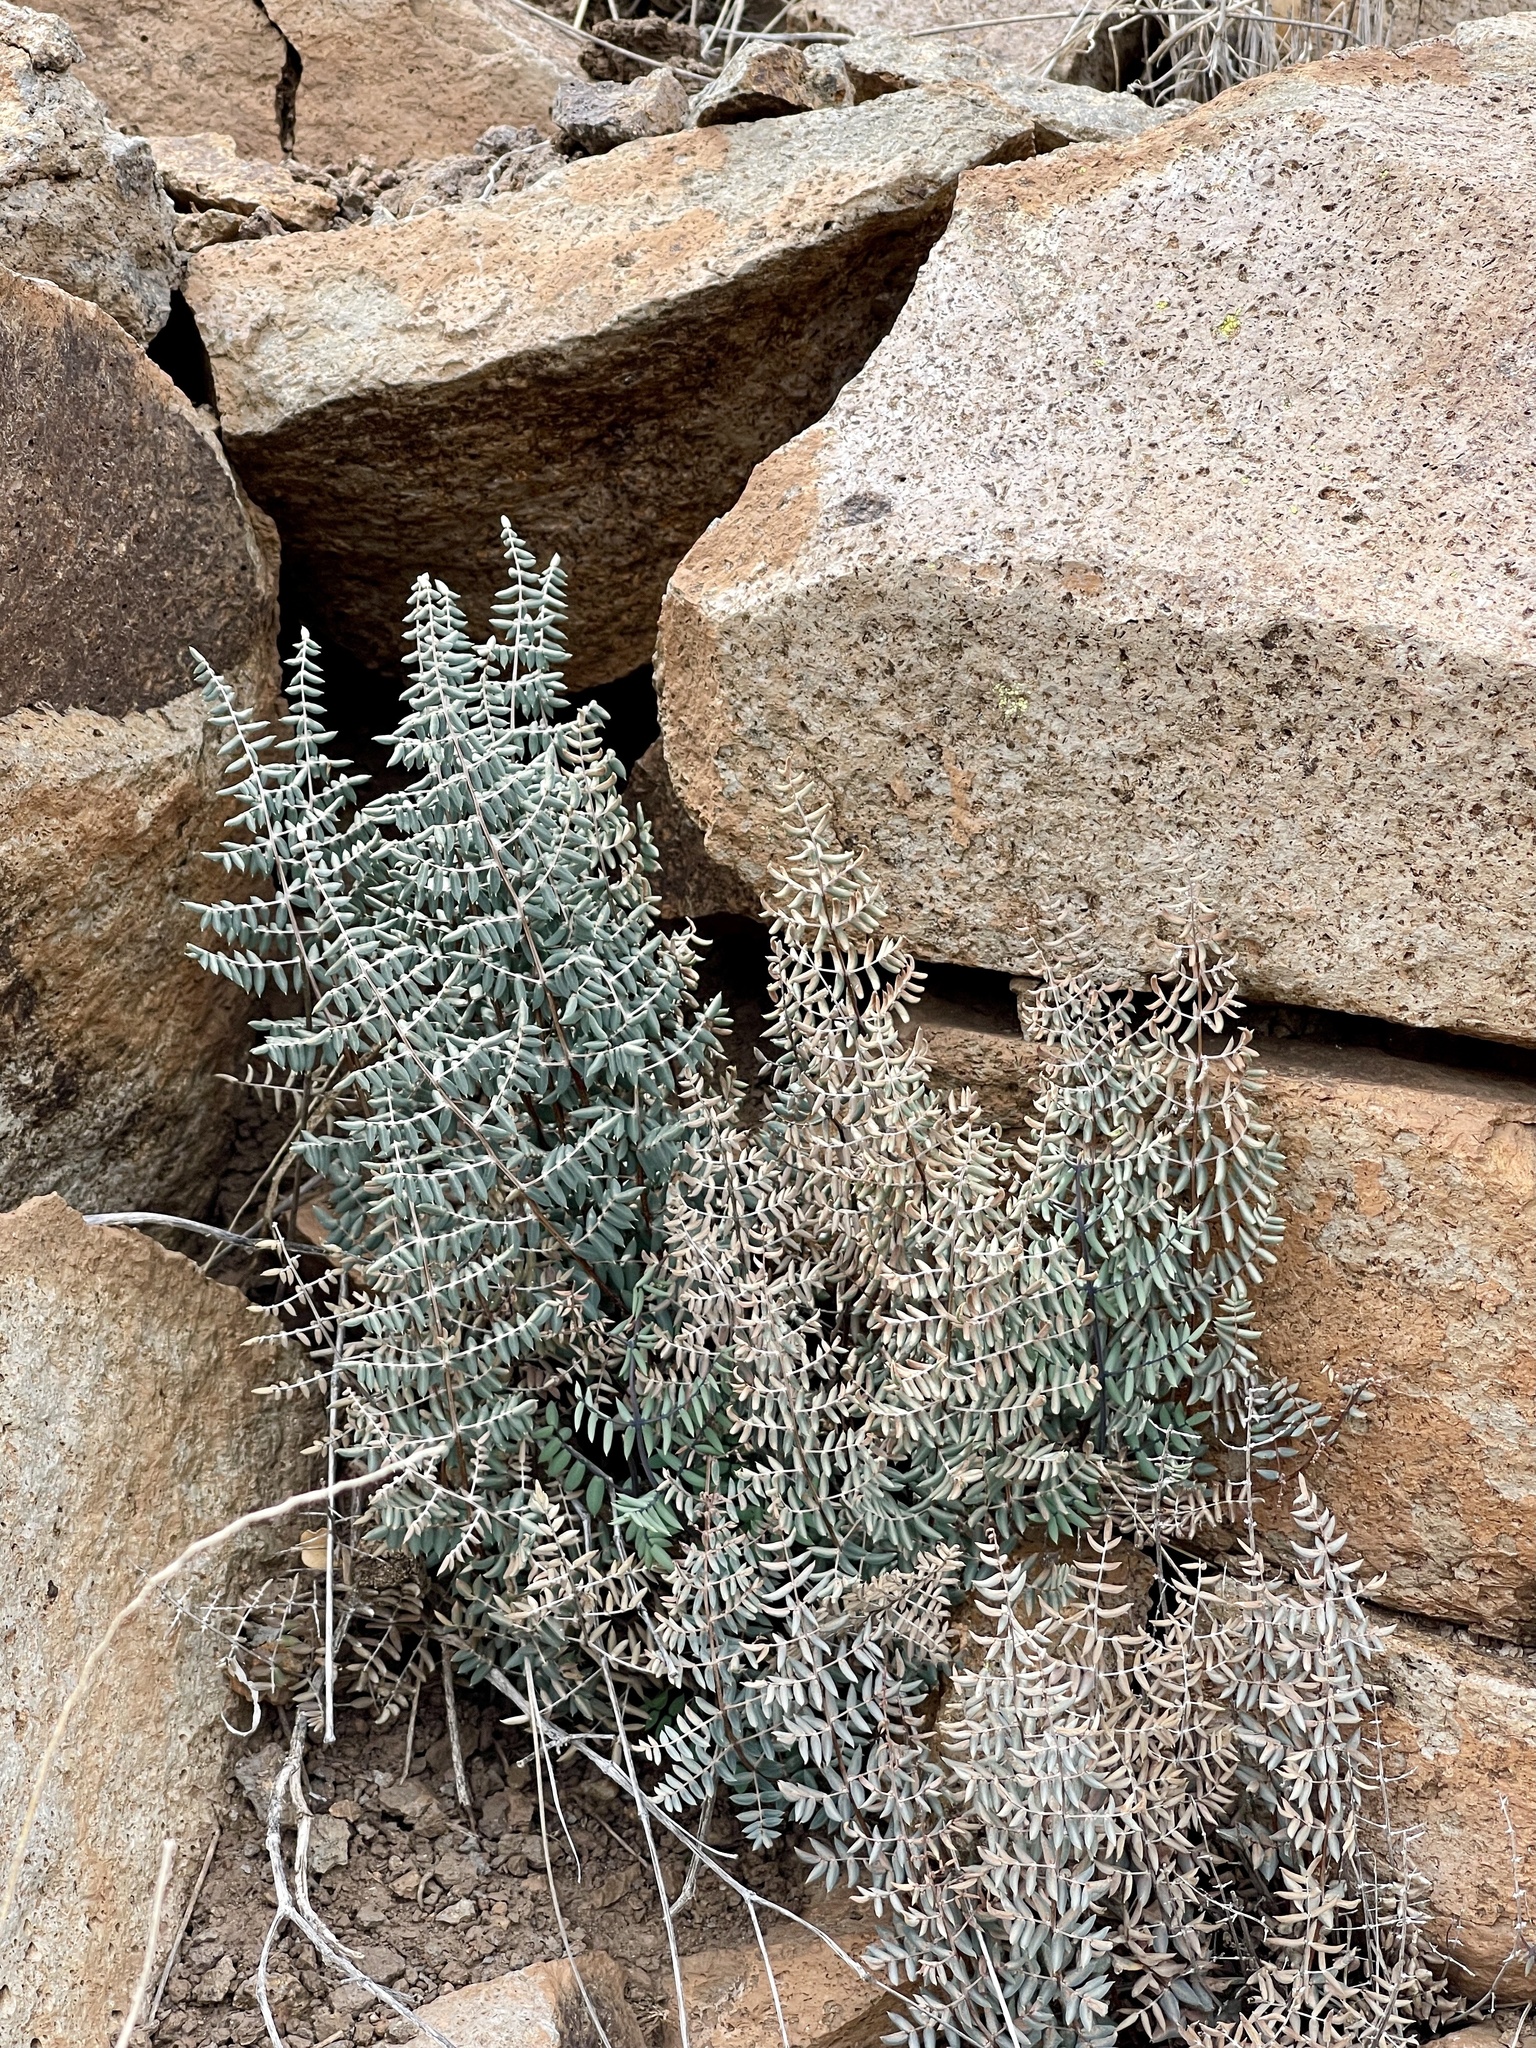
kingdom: Plantae
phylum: Tracheophyta
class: Polypodiopsida
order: Polypodiales
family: Pteridaceae
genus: Pellaea
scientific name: Pellaea truncata
